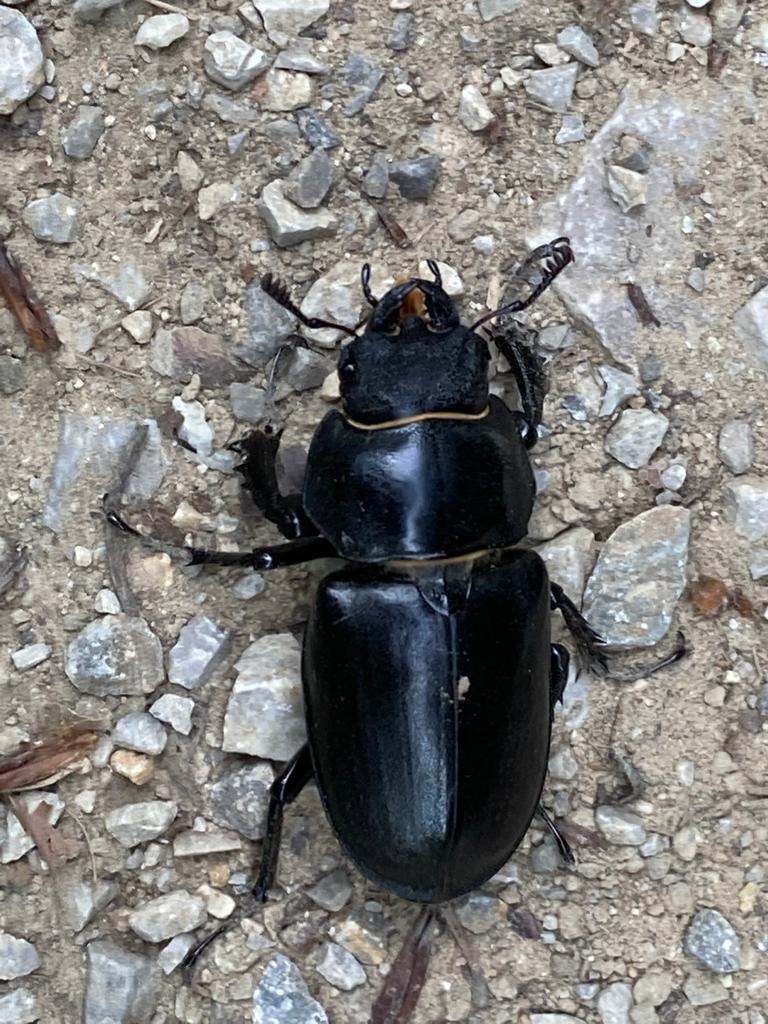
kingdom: Animalia
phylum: Arthropoda
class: Insecta
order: Coleoptera
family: Lucanidae
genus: Lucanus
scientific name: Lucanus cervus
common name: Stag beetle
